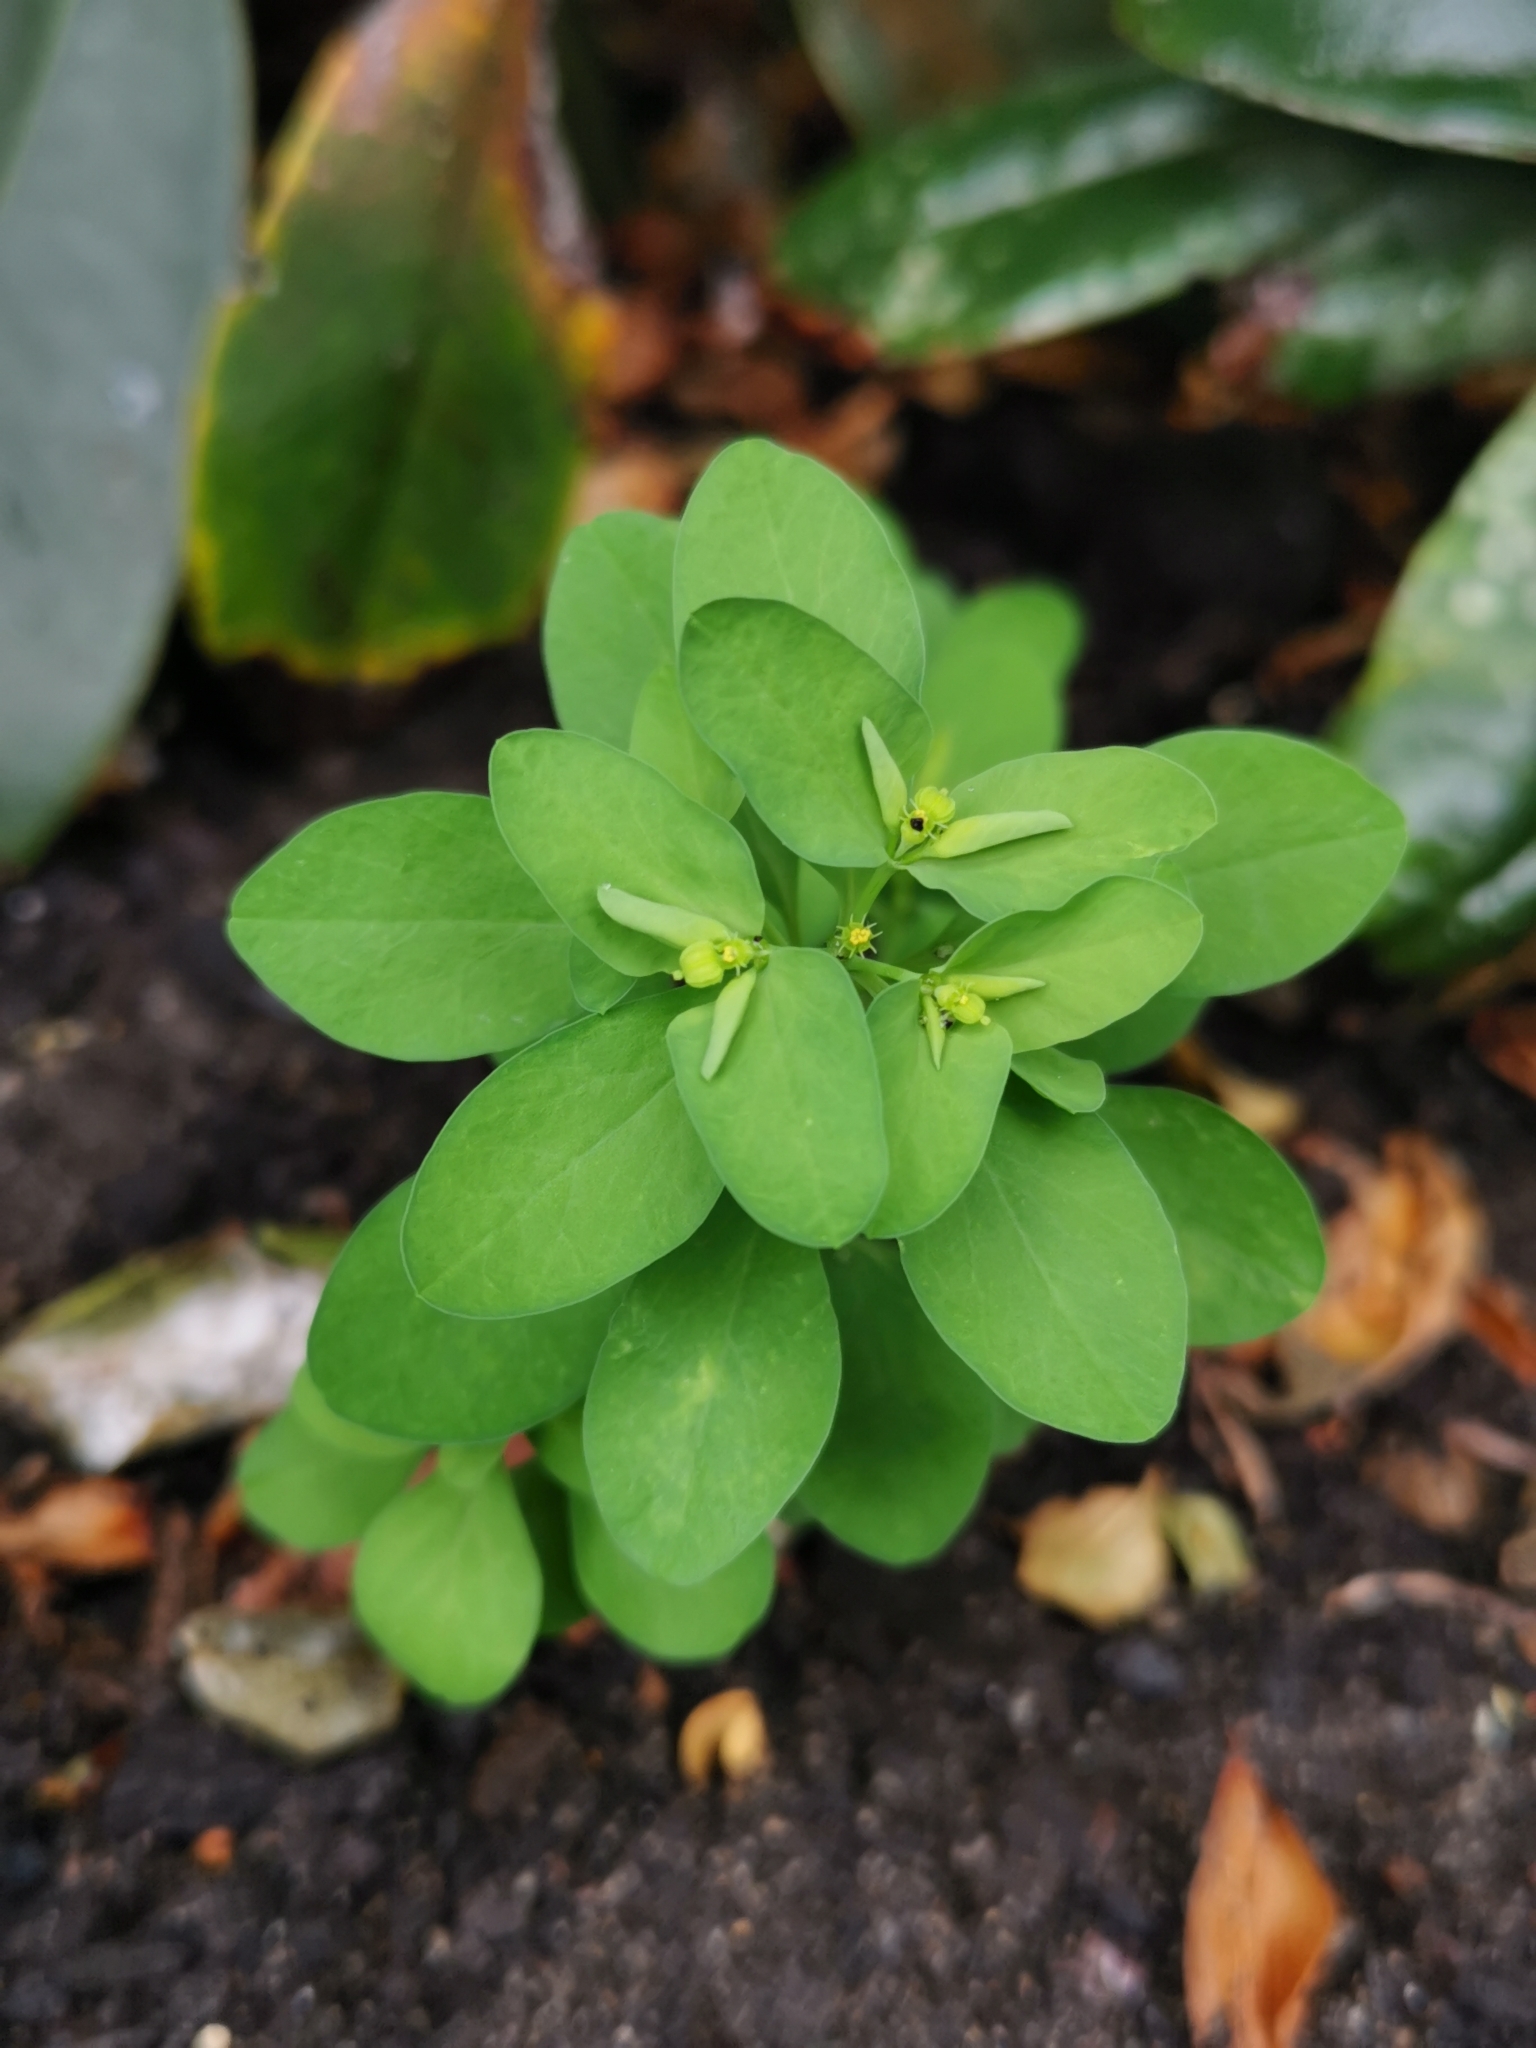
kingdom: Plantae
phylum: Tracheophyta
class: Magnoliopsida
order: Malpighiales
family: Euphorbiaceae
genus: Euphorbia
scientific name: Euphorbia peplus
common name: Petty spurge
